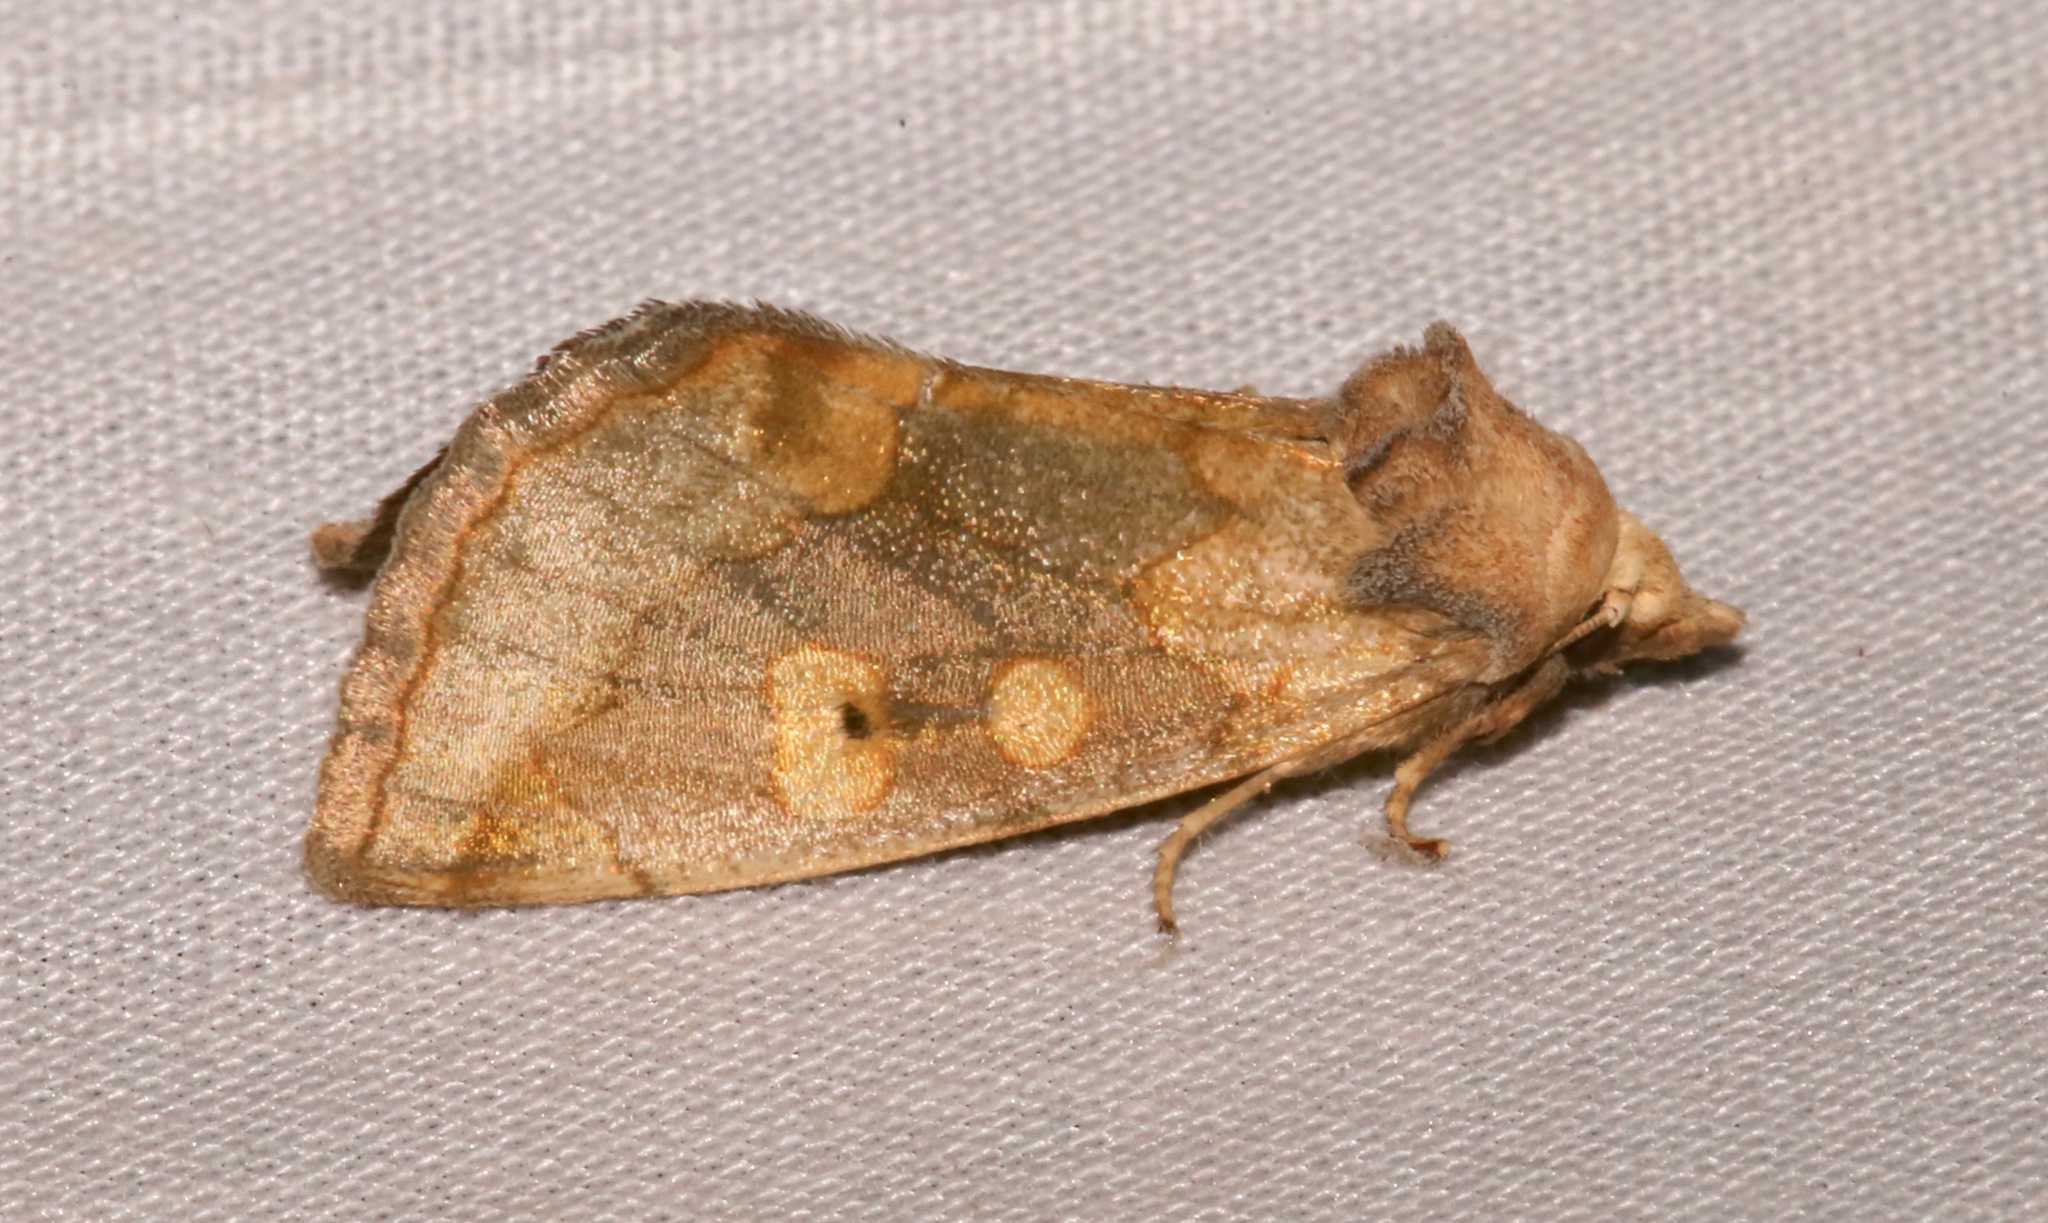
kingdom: Animalia
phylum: Arthropoda
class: Insecta
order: Lepidoptera
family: Noctuidae
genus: Basilodes
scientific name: Basilodes chrysopis
